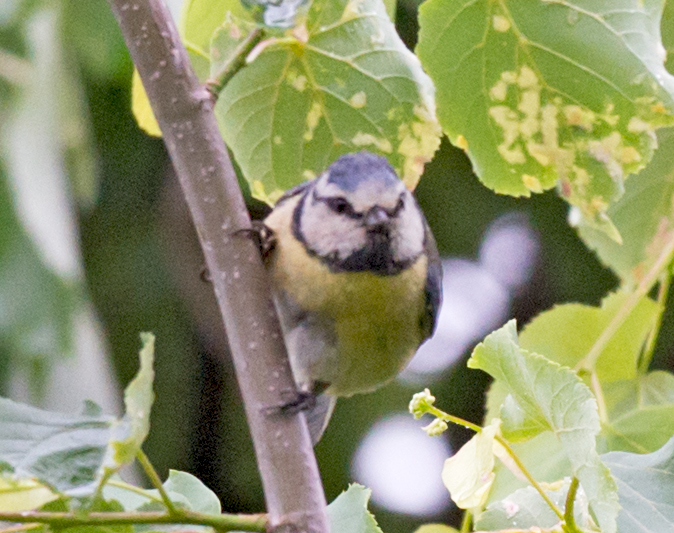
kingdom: Animalia
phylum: Chordata
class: Aves
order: Passeriformes
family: Paridae
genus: Cyanistes
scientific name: Cyanistes caeruleus
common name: Eurasian blue tit
